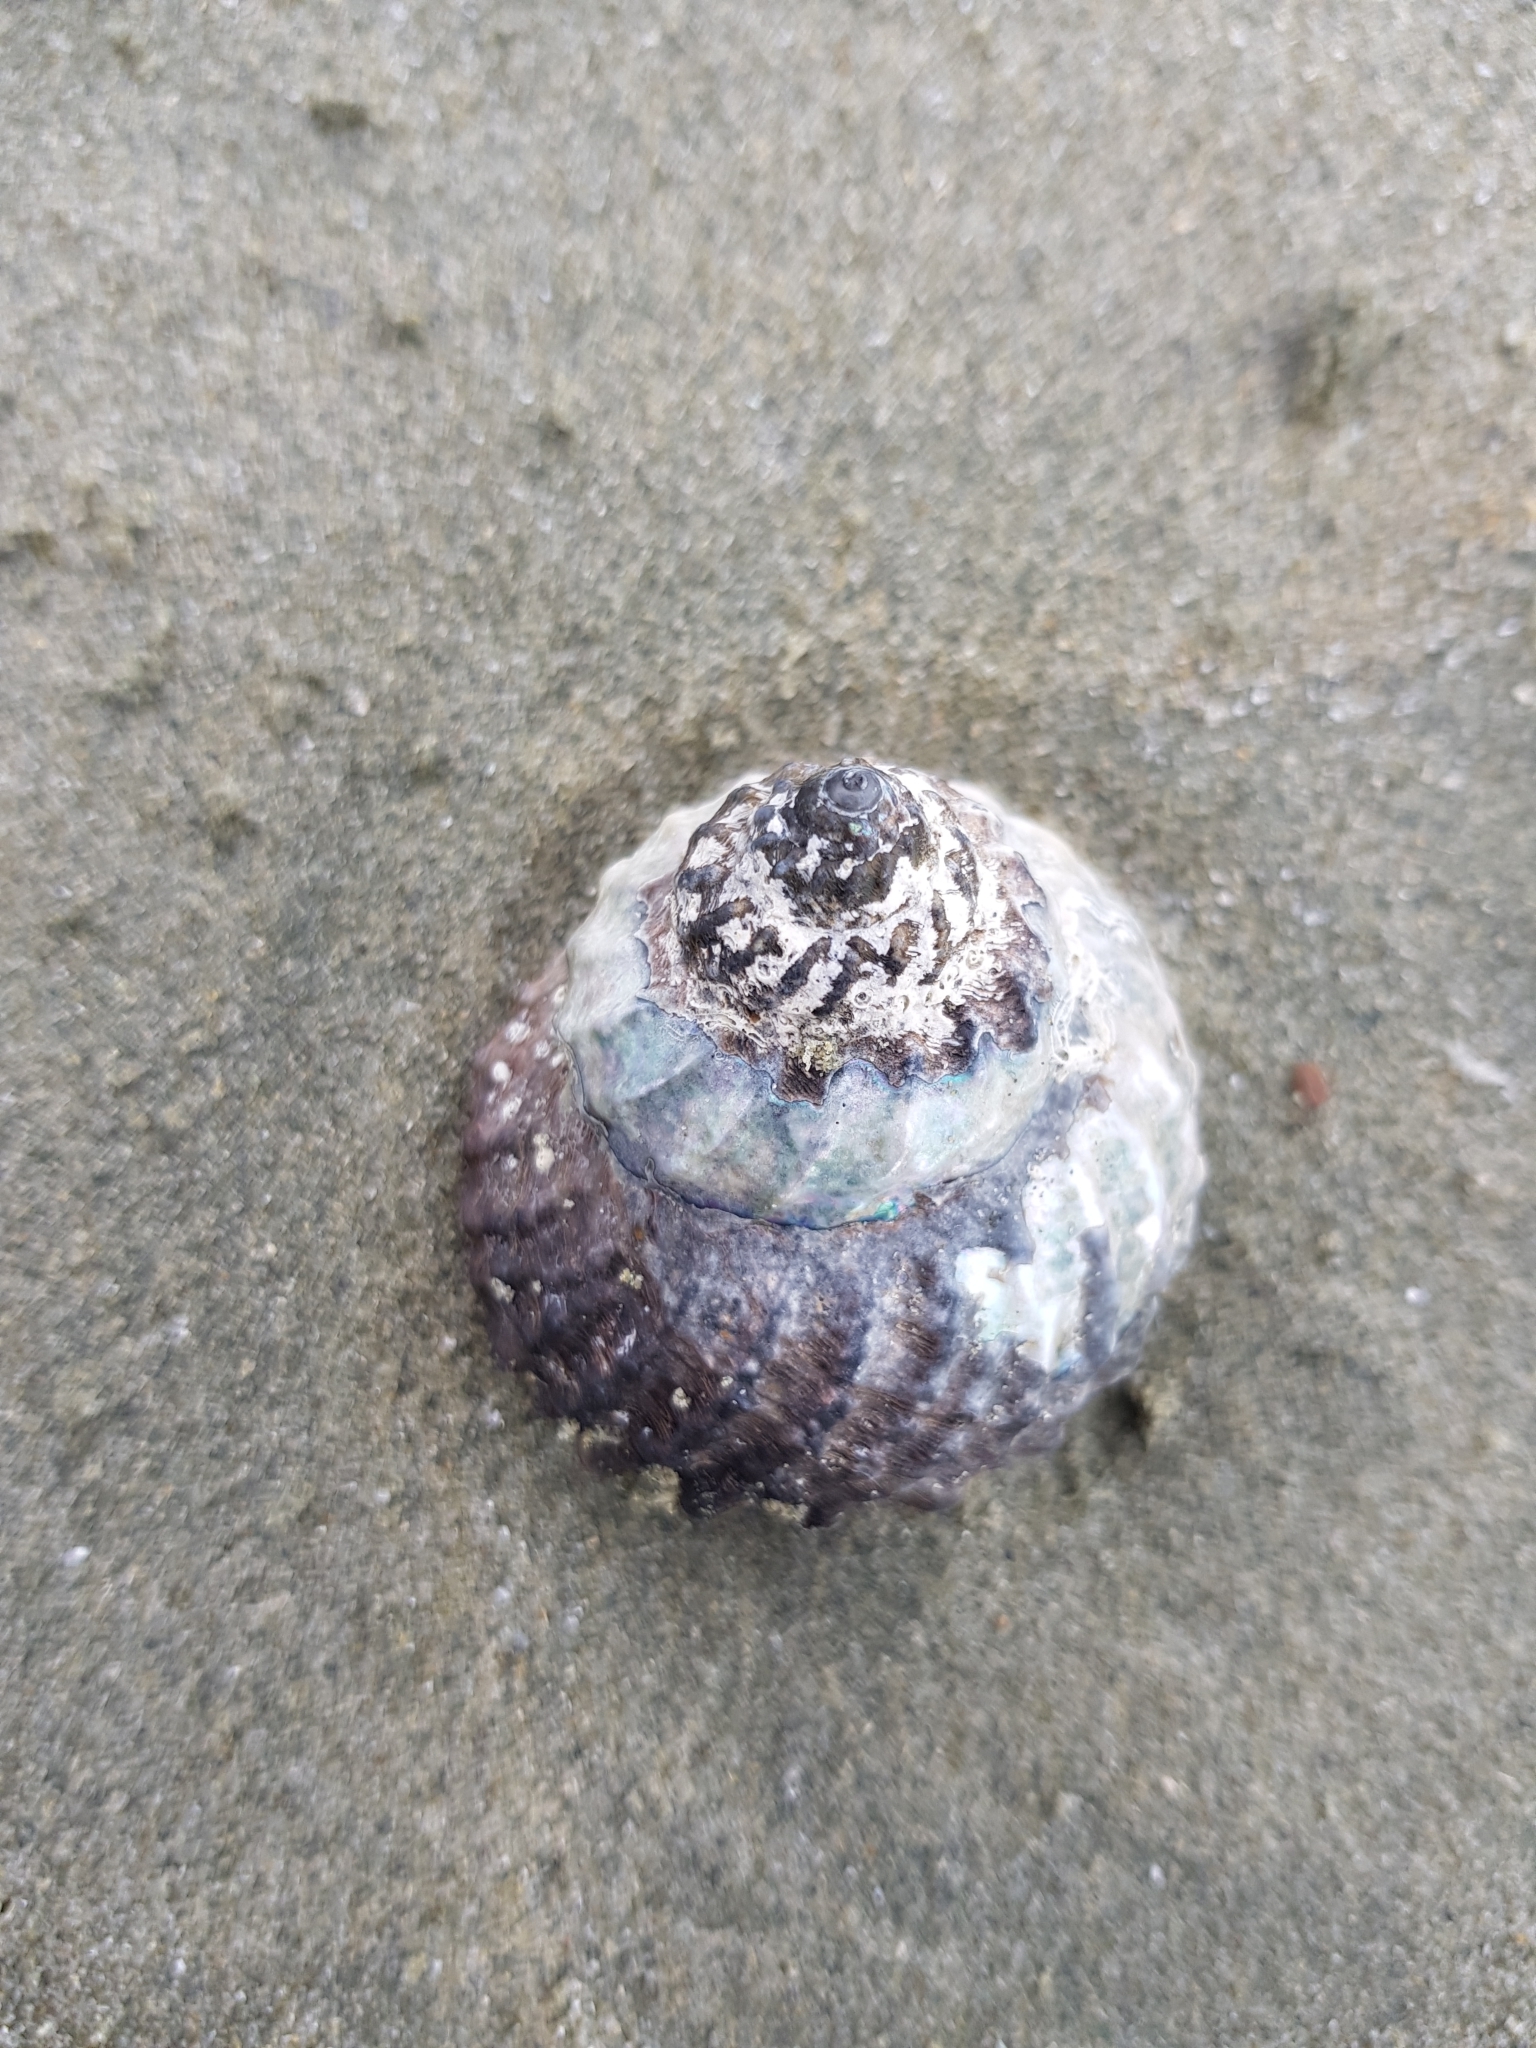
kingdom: Animalia
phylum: Mollusca
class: Gastropoda
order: Trochida
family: Turbinidae
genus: Cookia
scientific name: Cookia sulcata
